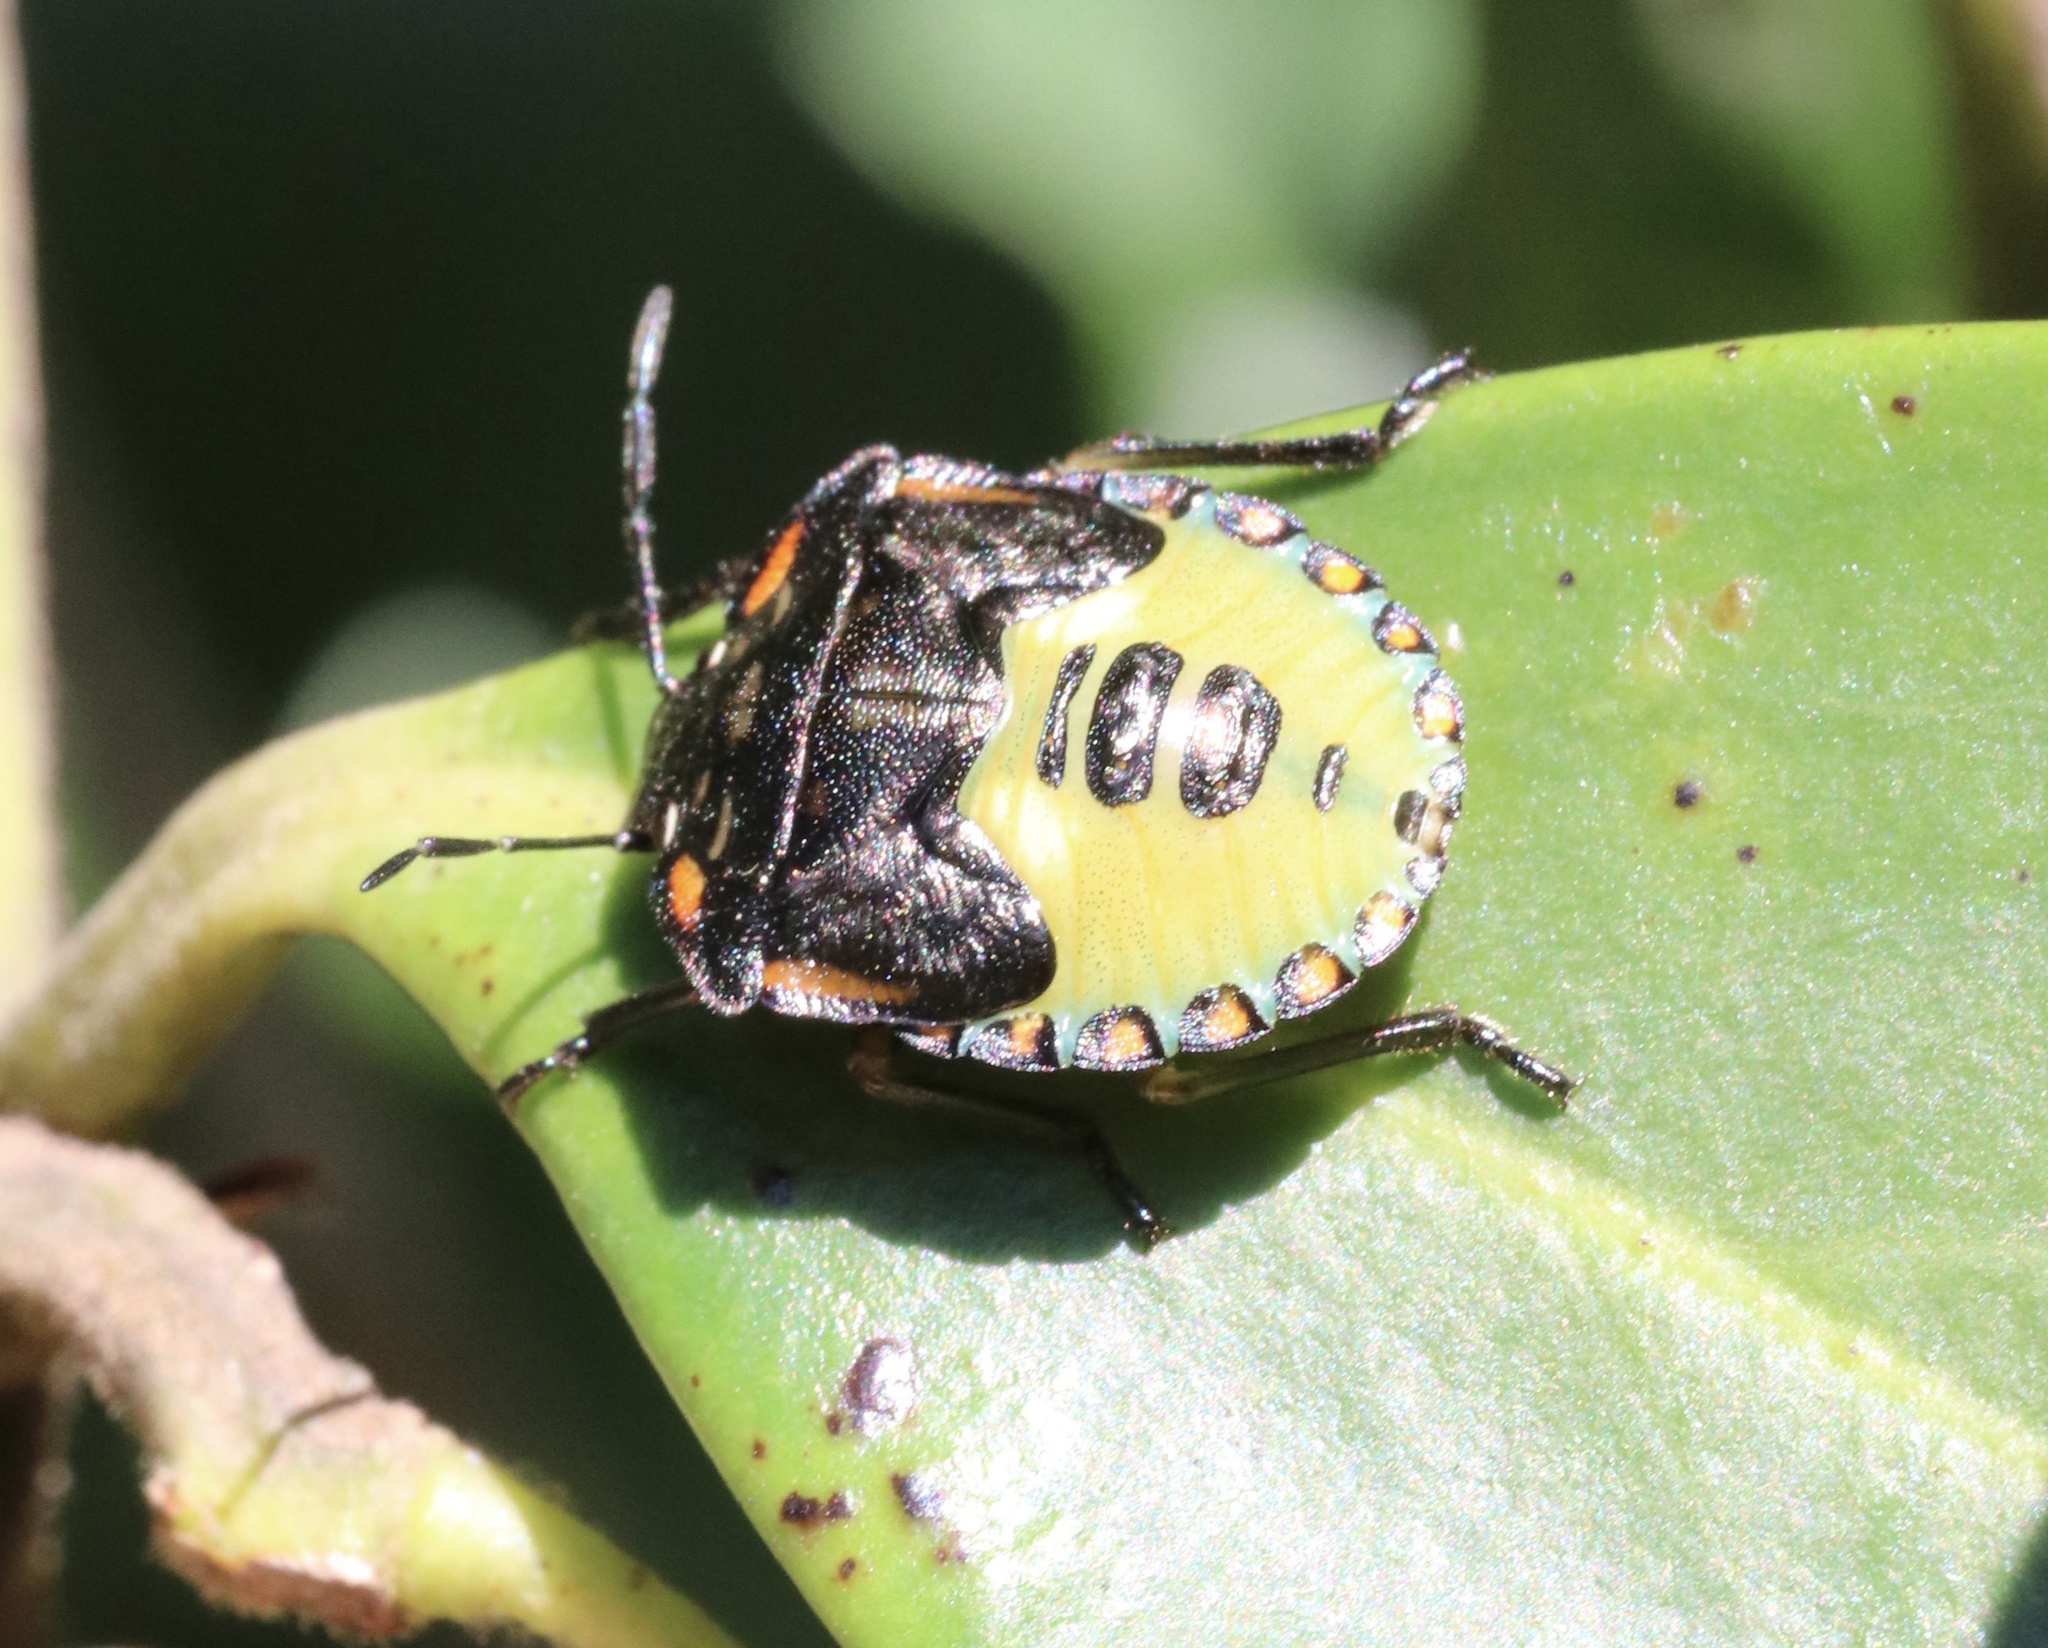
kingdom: Animalia
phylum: Arthropoda
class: Insecta
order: Hemiptera
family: Pentatomidae
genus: Chinavia
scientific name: Chinavia perezi
